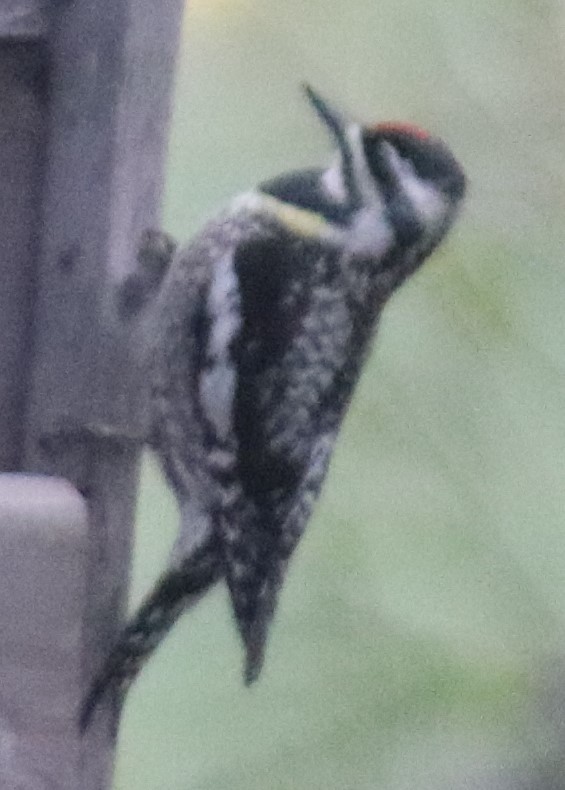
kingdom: Animalia
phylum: Chordata
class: Aves
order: Piciformes
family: Picidae
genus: Sphyrapicus
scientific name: Sphyrapicus varius
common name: Yellow-bellied sapsucker
